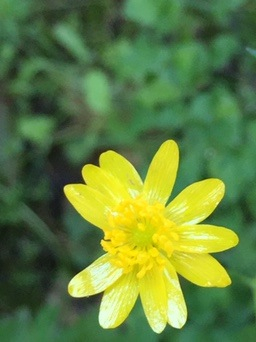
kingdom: Plantae
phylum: Tracheophyta
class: Magnoliopsida
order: Ranunculales
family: Ranunculaceae
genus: Ranunculus
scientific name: Ranunculus californicus
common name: California buttercup
